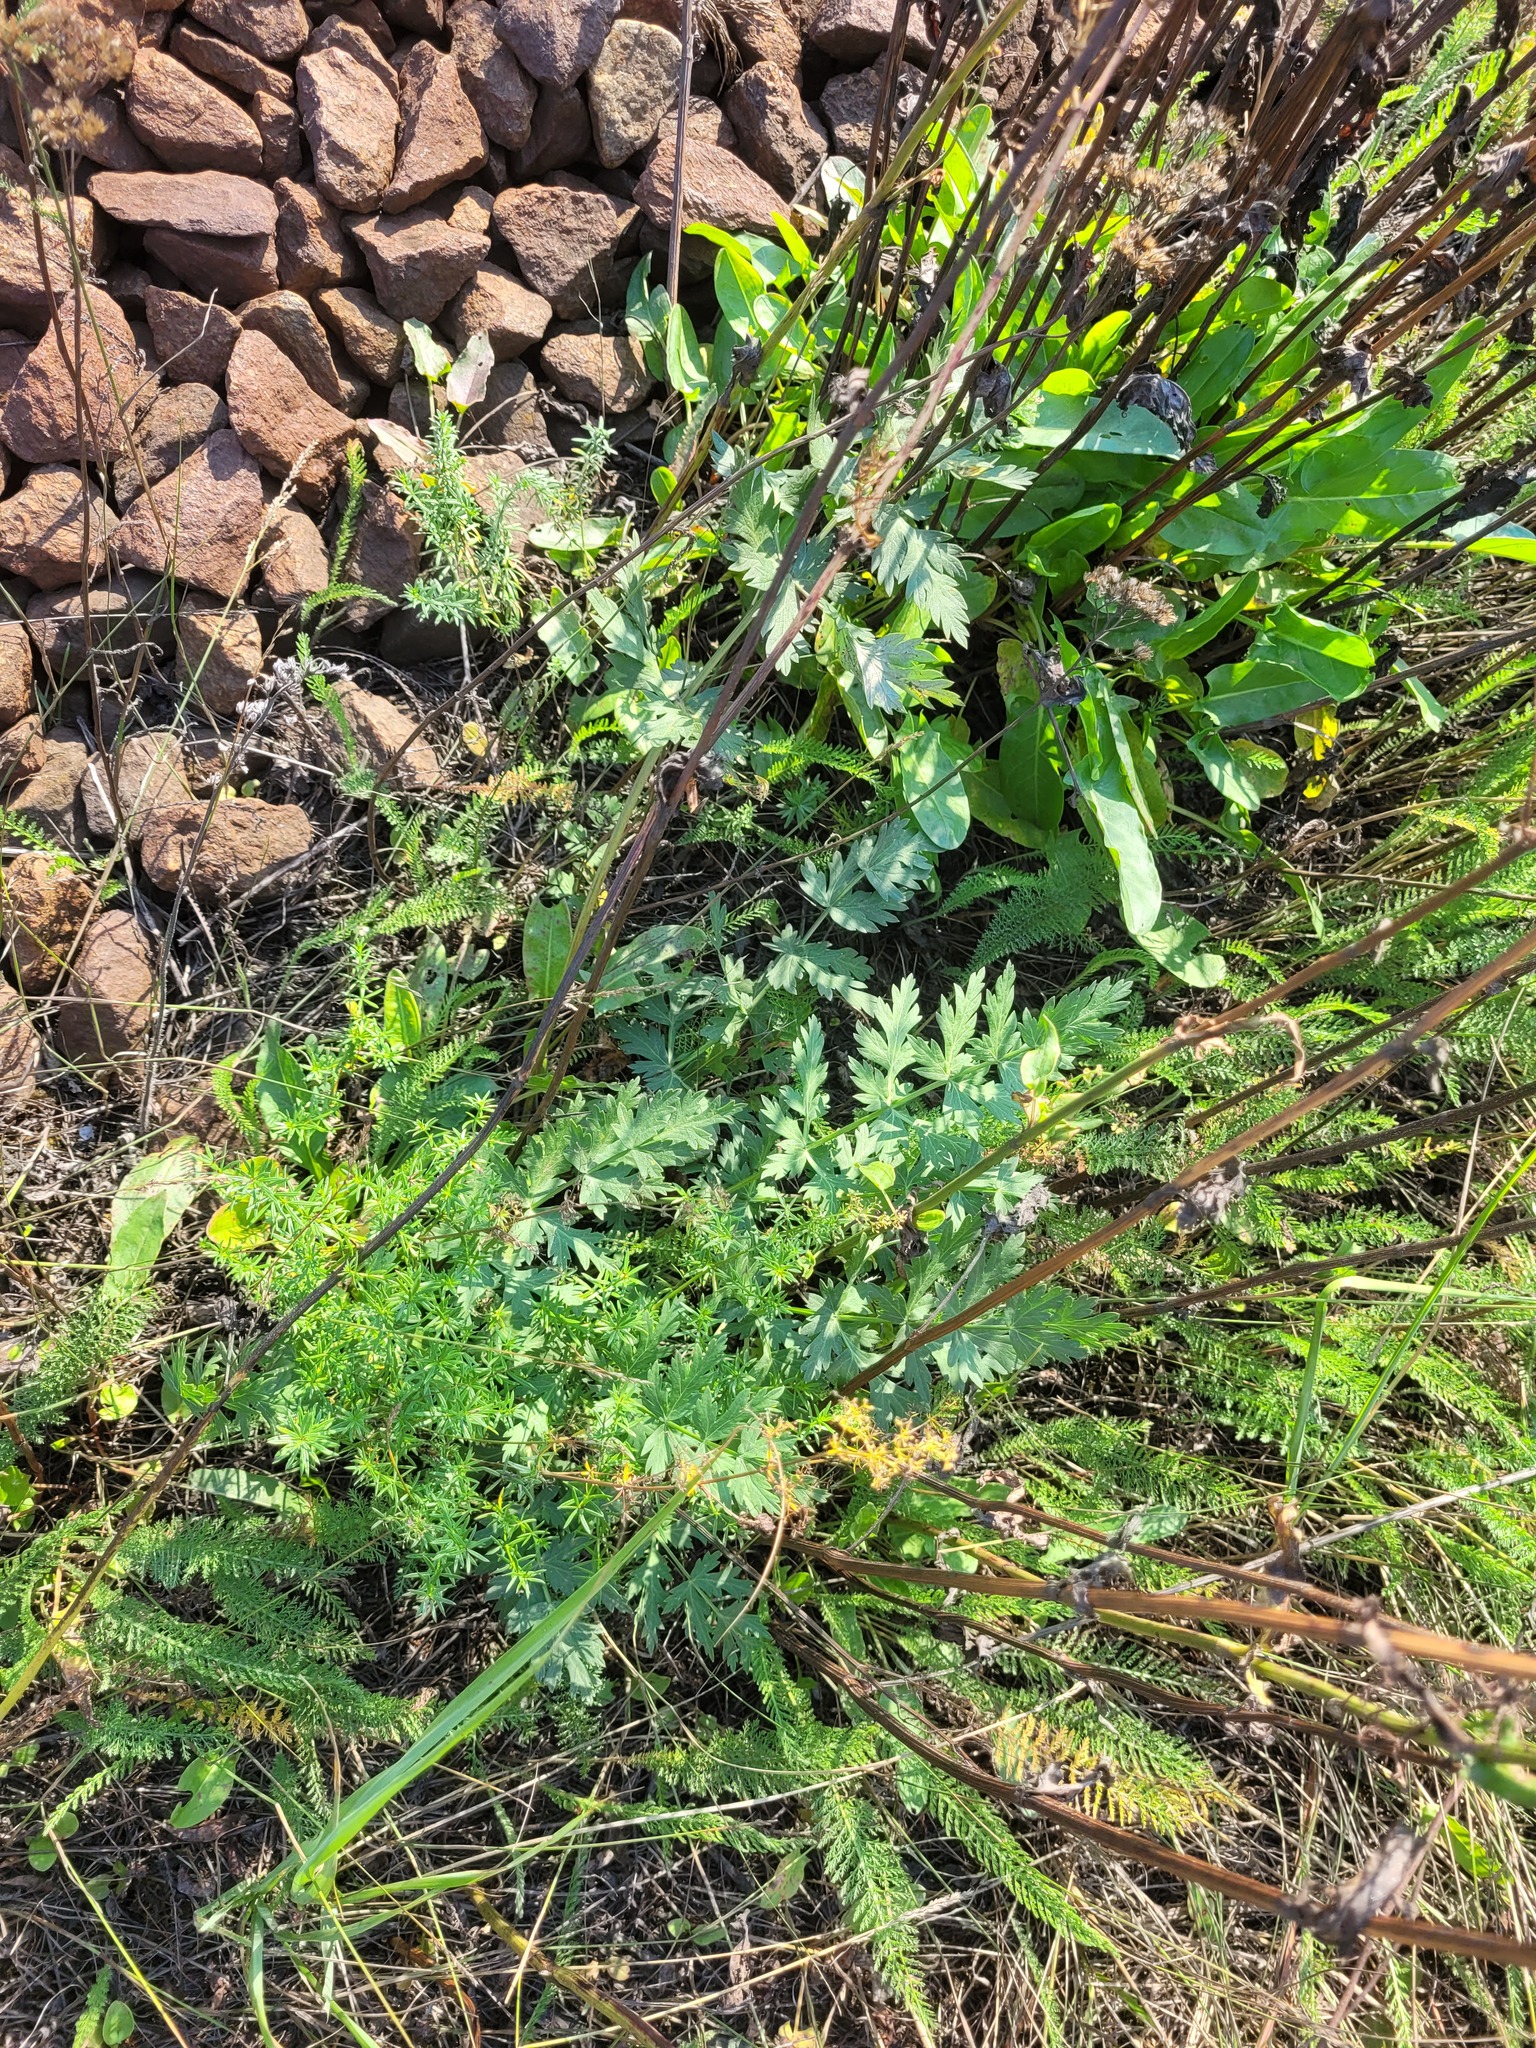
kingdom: Plantae
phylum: Tracheophyta
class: Magnoliopsida
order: Apiales
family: Apiaceae
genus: Seseli
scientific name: Seseli libanotis
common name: Mooncarrot
